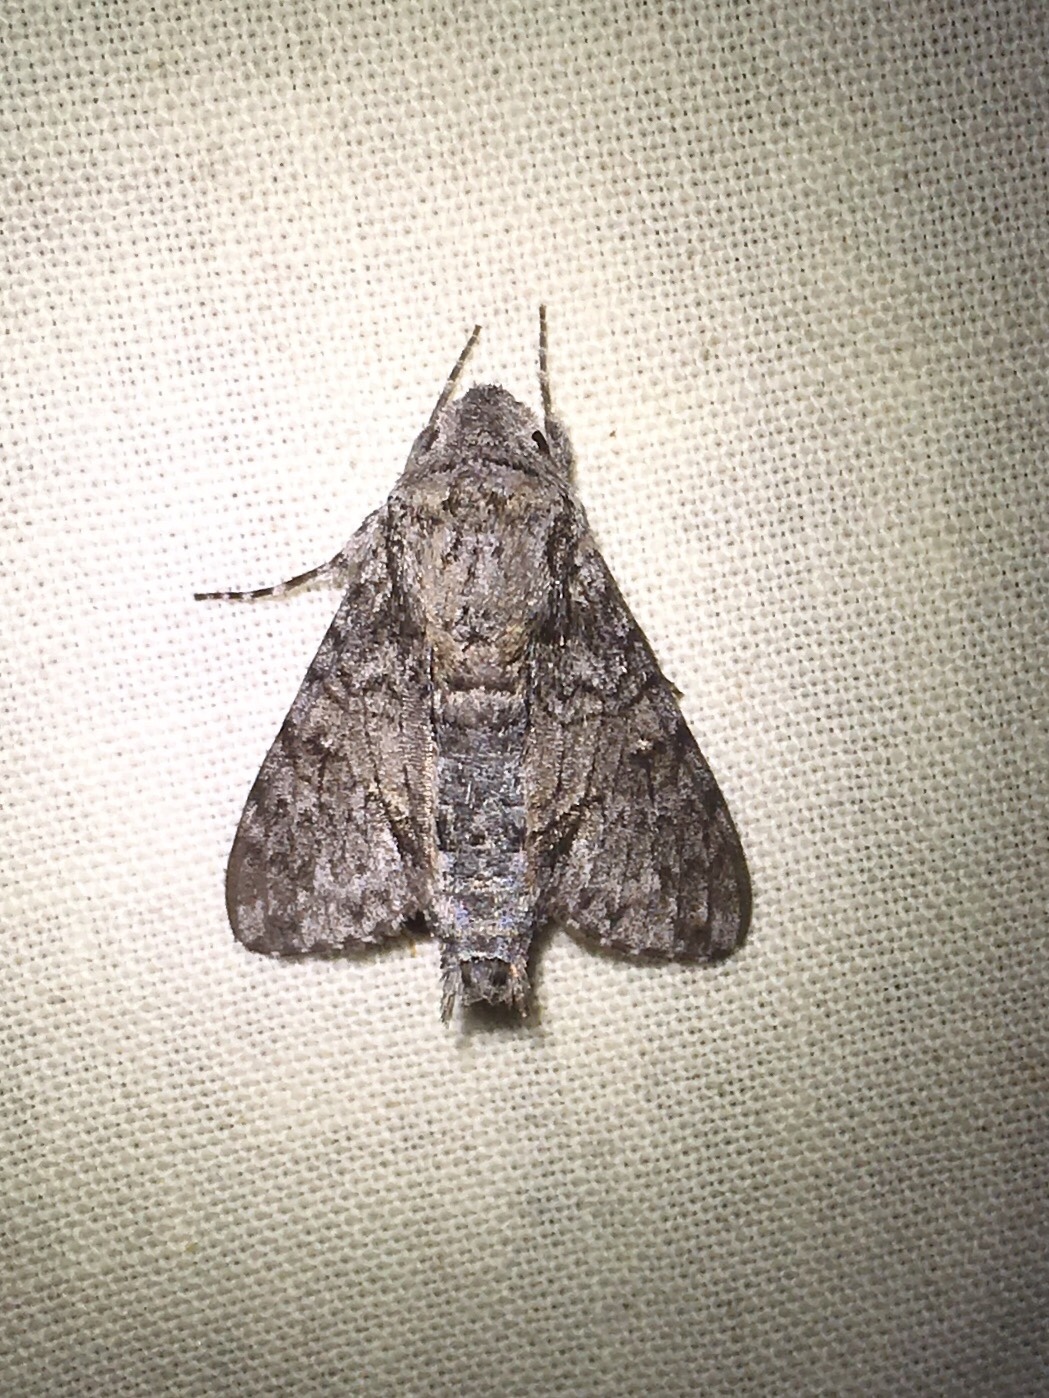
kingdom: Animalia
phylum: Arthropoda
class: Insecta
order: Lepidoptera
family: Sphingidae
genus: Cautethia
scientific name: Cautethia grotei
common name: Grote's sphinx
